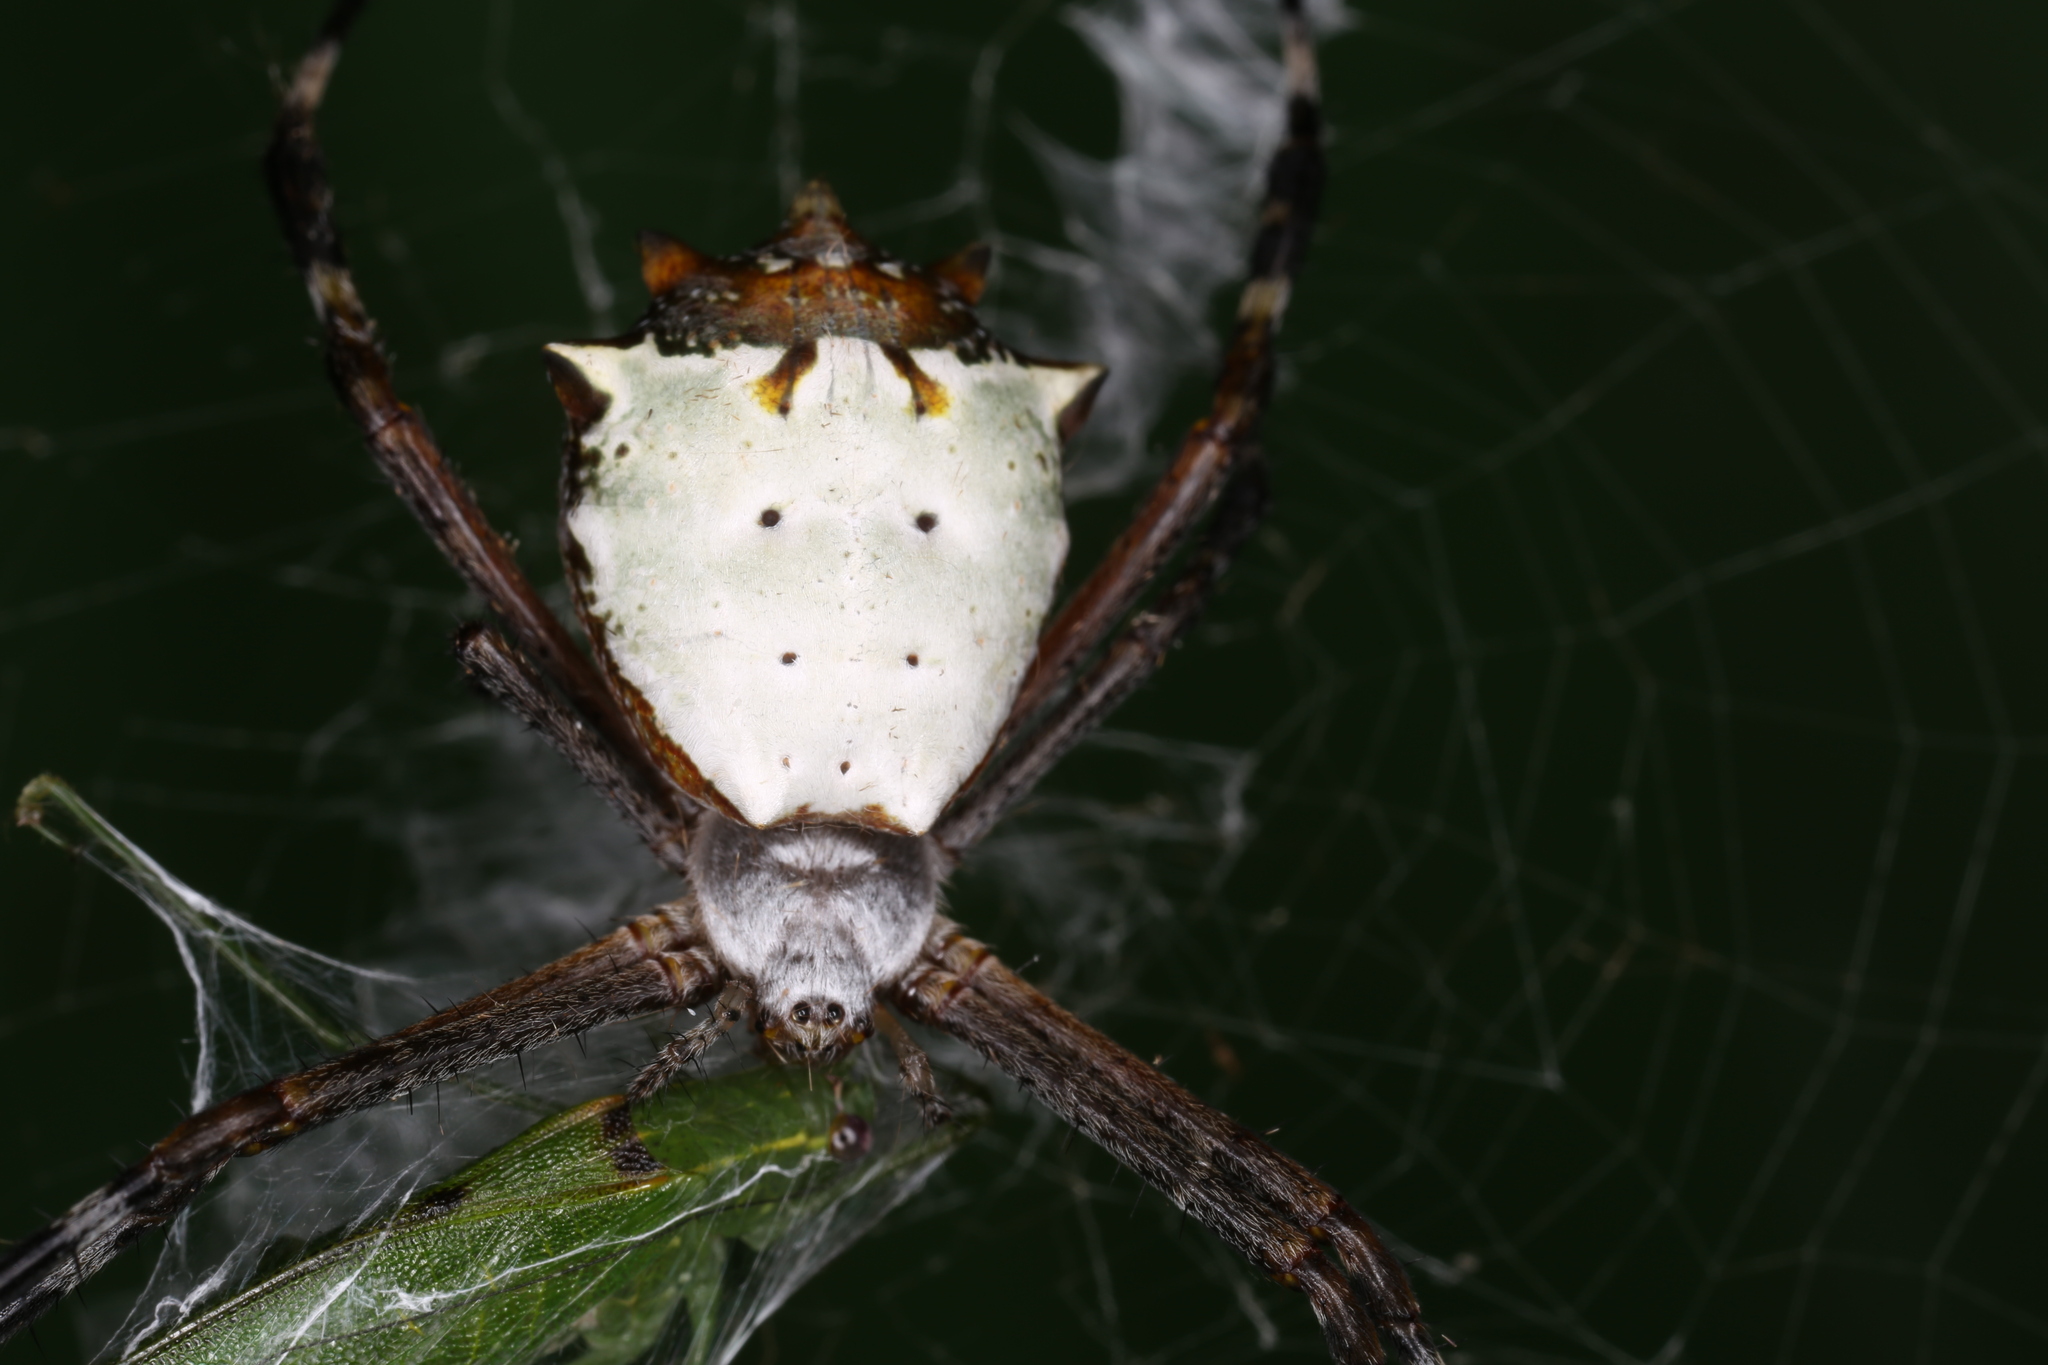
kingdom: Animalia
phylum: Arthropoda
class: Arachnida
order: Araneae
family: Araneidae
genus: Argiope
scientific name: Argiope submaronica
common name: Orb weavers
